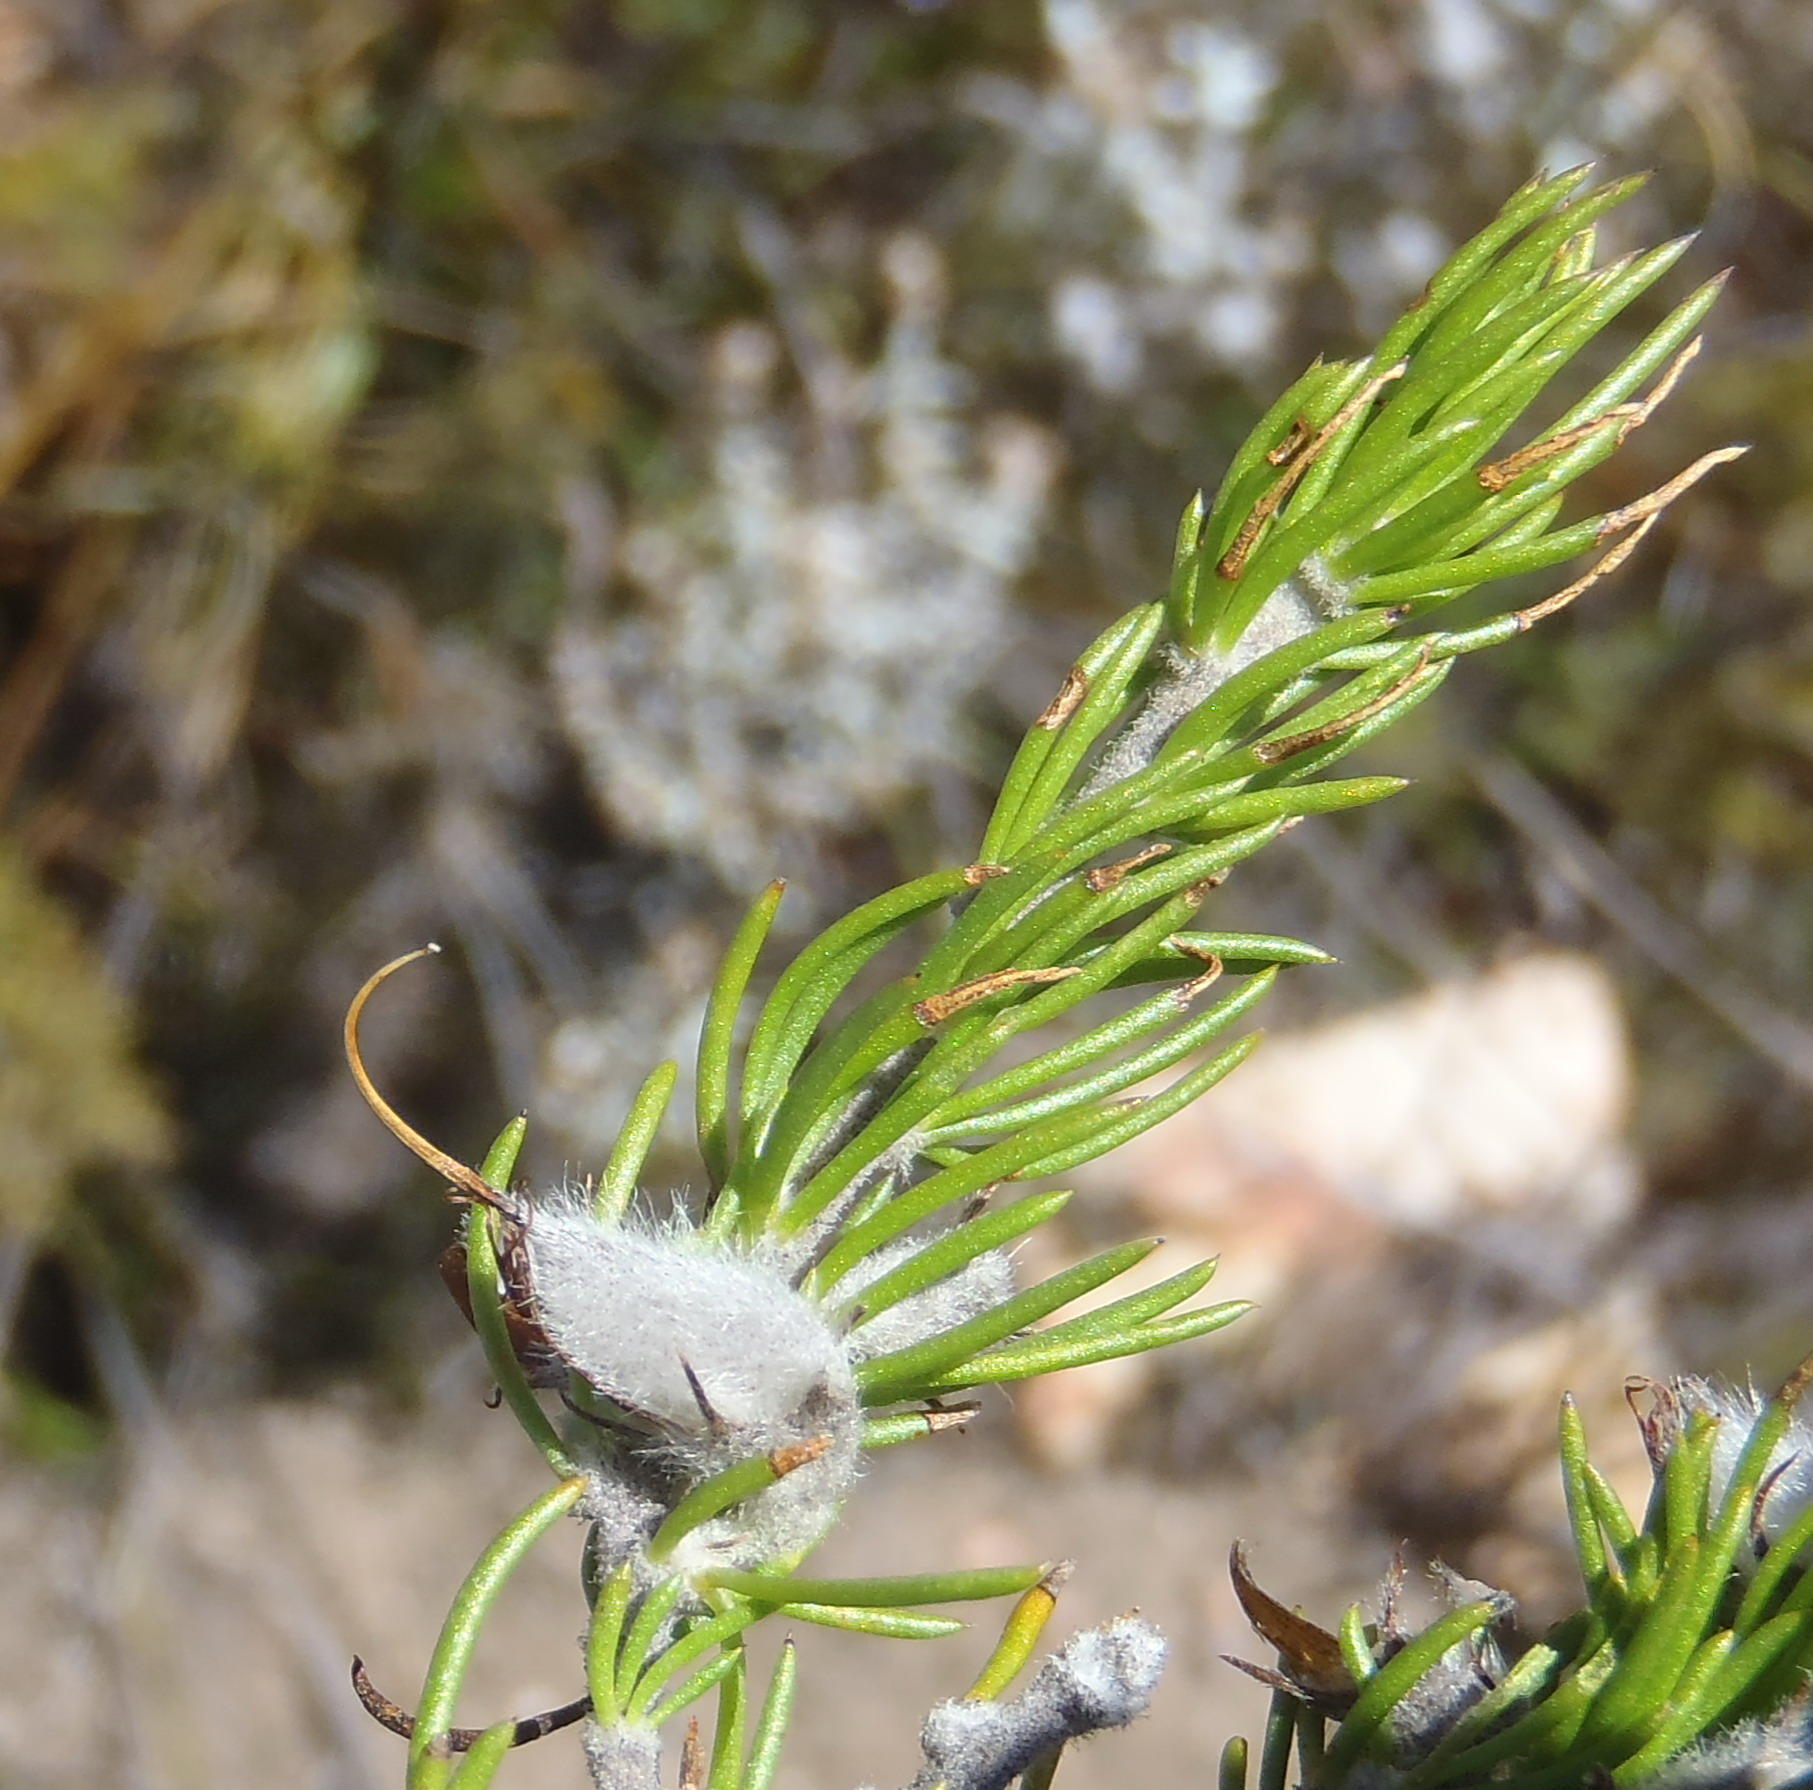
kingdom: Plantae
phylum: Tracheophyta
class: Magnoliopsida
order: Fabales
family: Fabaceae
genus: Aspalathus
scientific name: Aspalathus congesta
